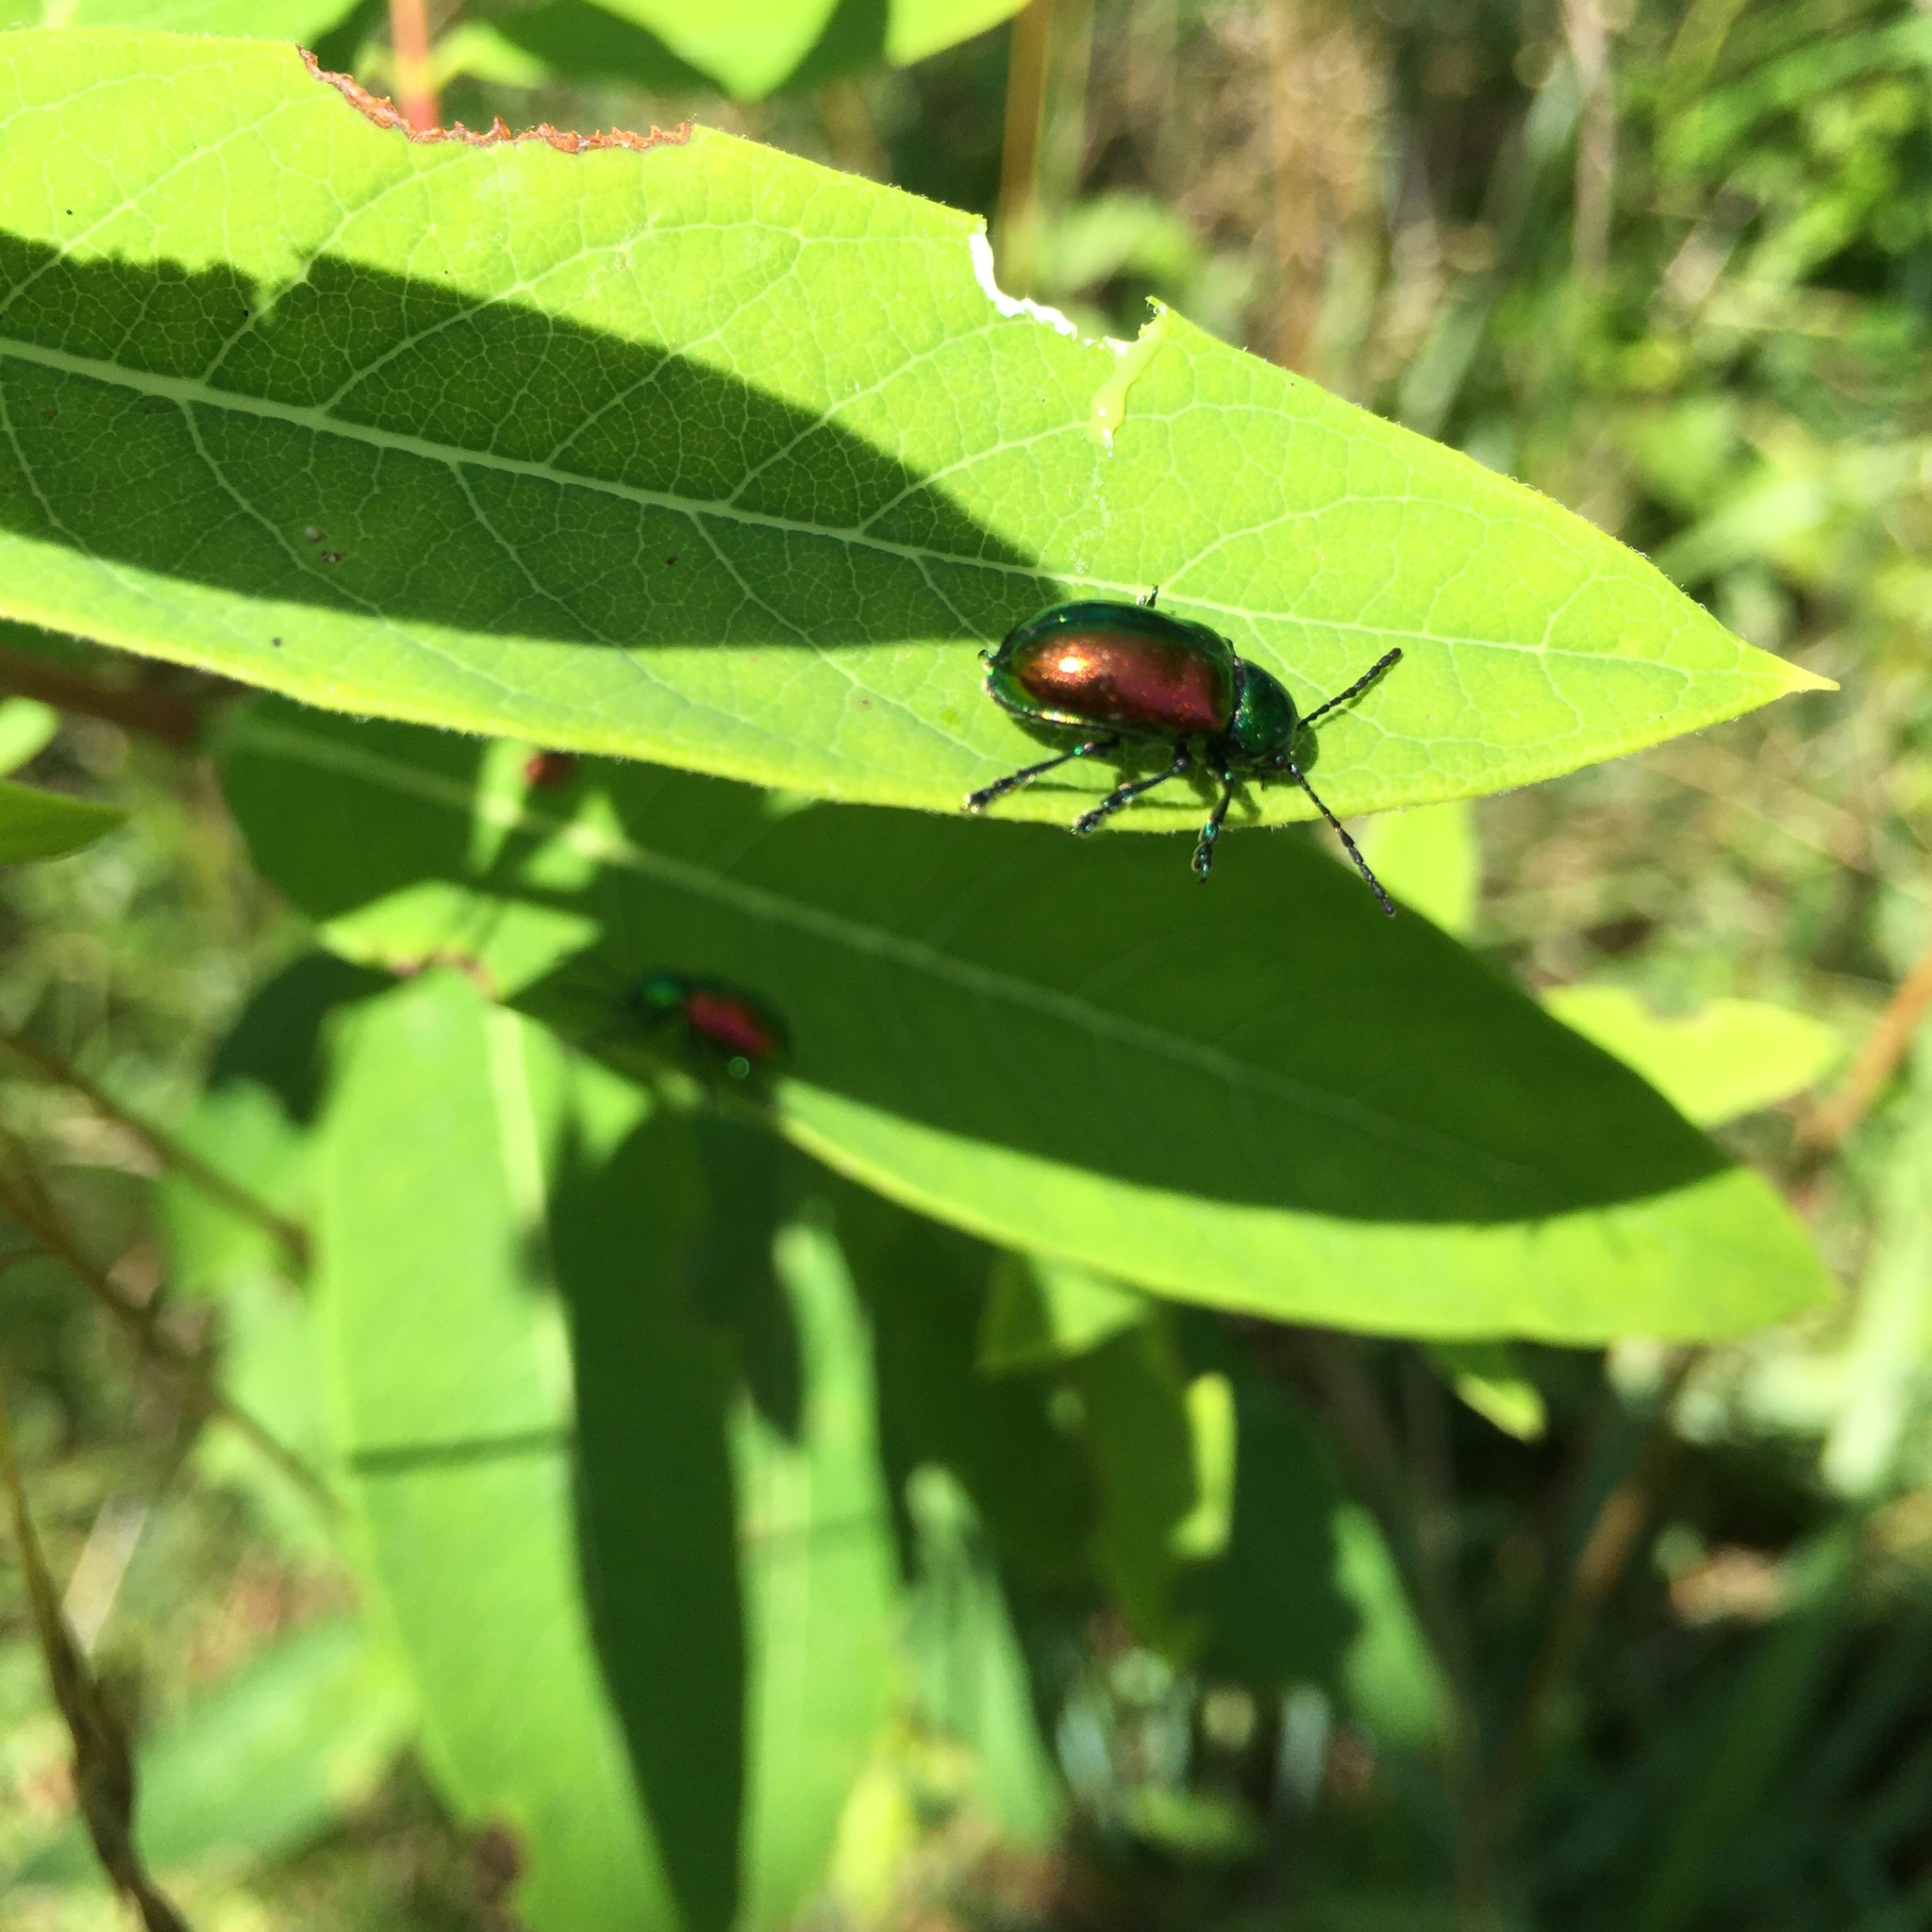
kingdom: Animalia
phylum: Arthropoda
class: Insecta
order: Coleoptera
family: Chrysomelidae
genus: Chrysochus
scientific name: Chrysochus auratus
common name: Dogbane leaf beetle
